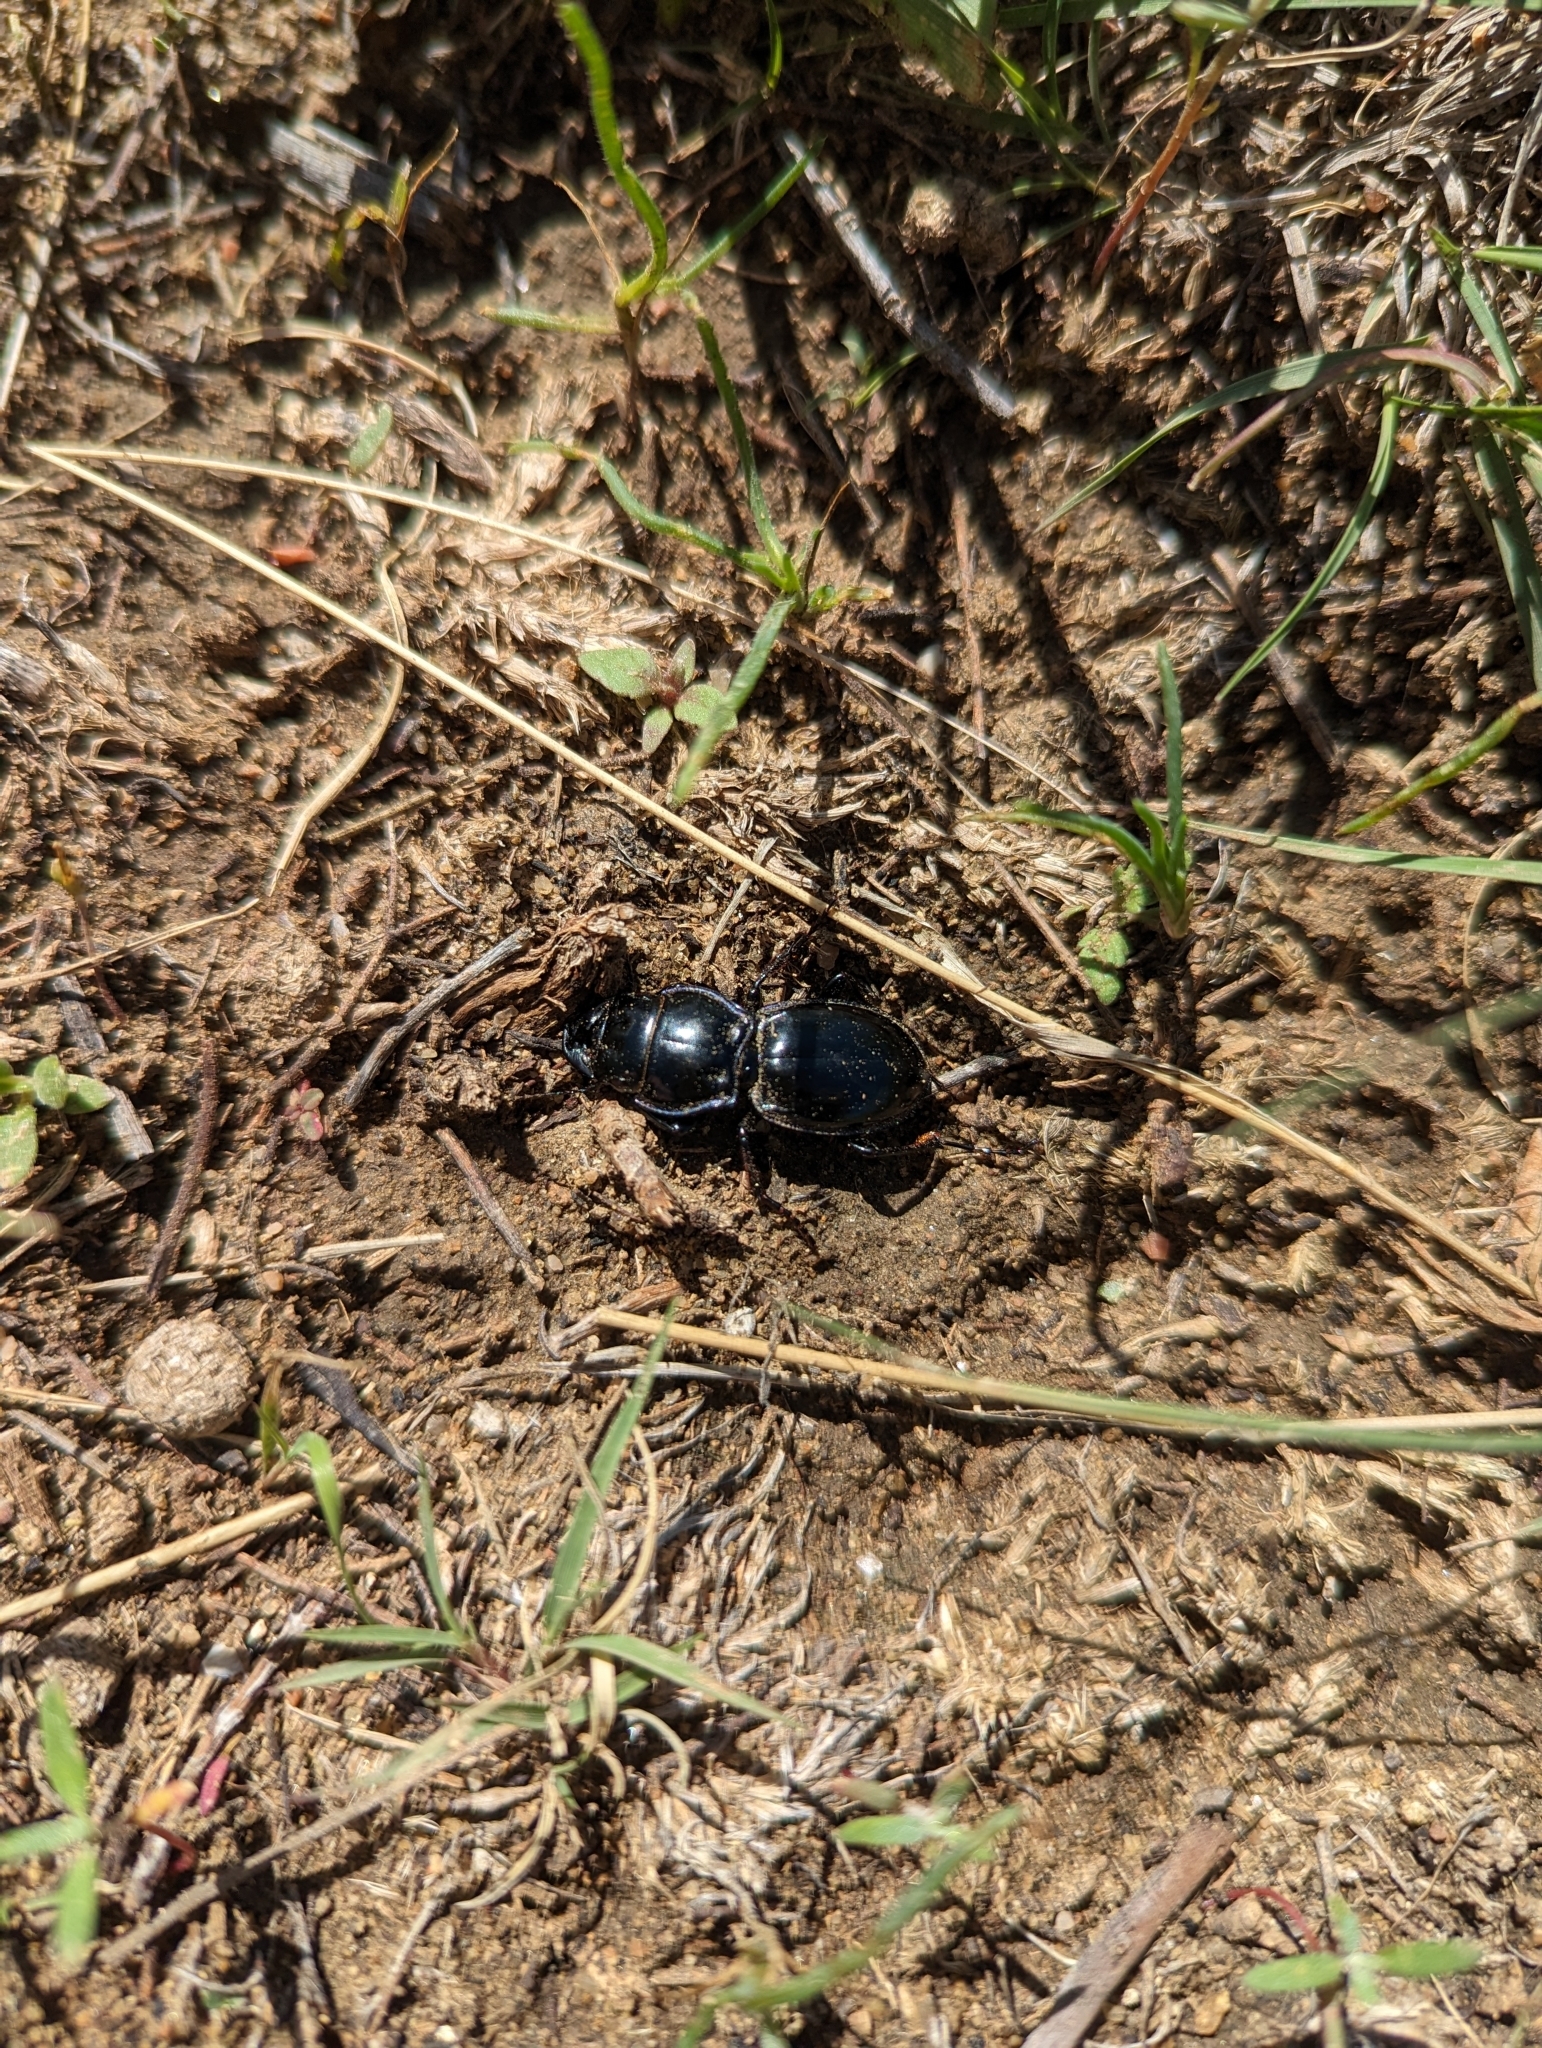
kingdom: Animalia
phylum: Arthropoda
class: Insecta
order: Coleoptera
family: Carabidae
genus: Pasimachus
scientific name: Pasimachus elongatus
